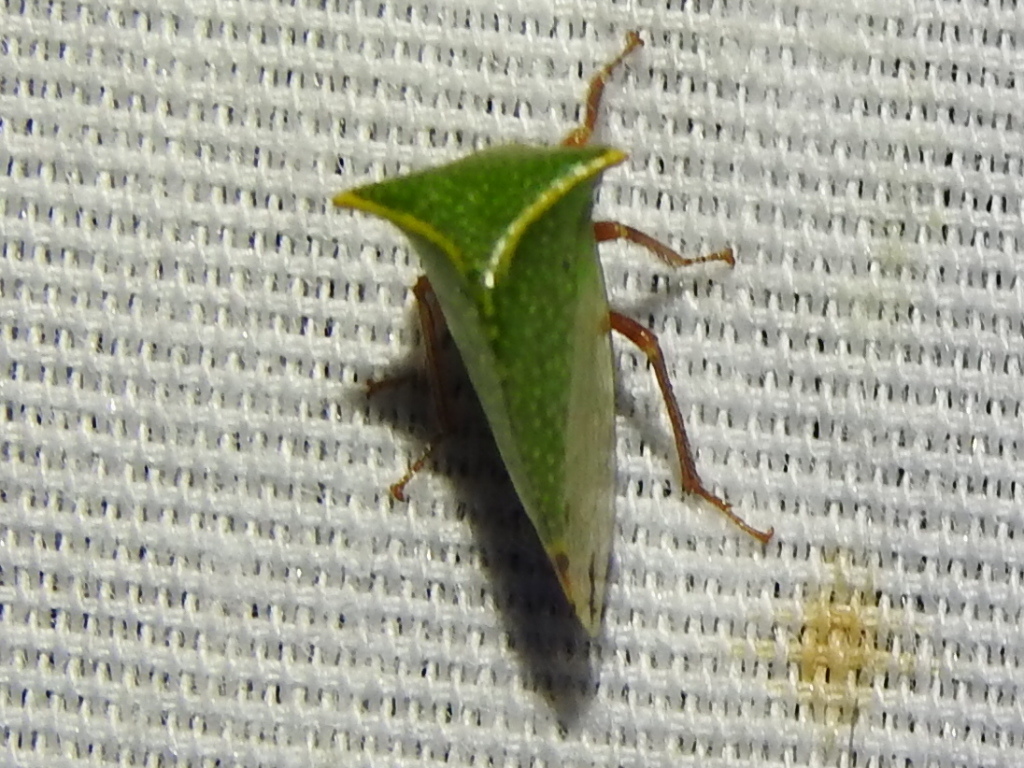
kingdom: Animalia
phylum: Arthropoda
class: Insecta
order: Hemiptera
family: Membracidae
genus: Tortistilus
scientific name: Tortistilus abnorma
